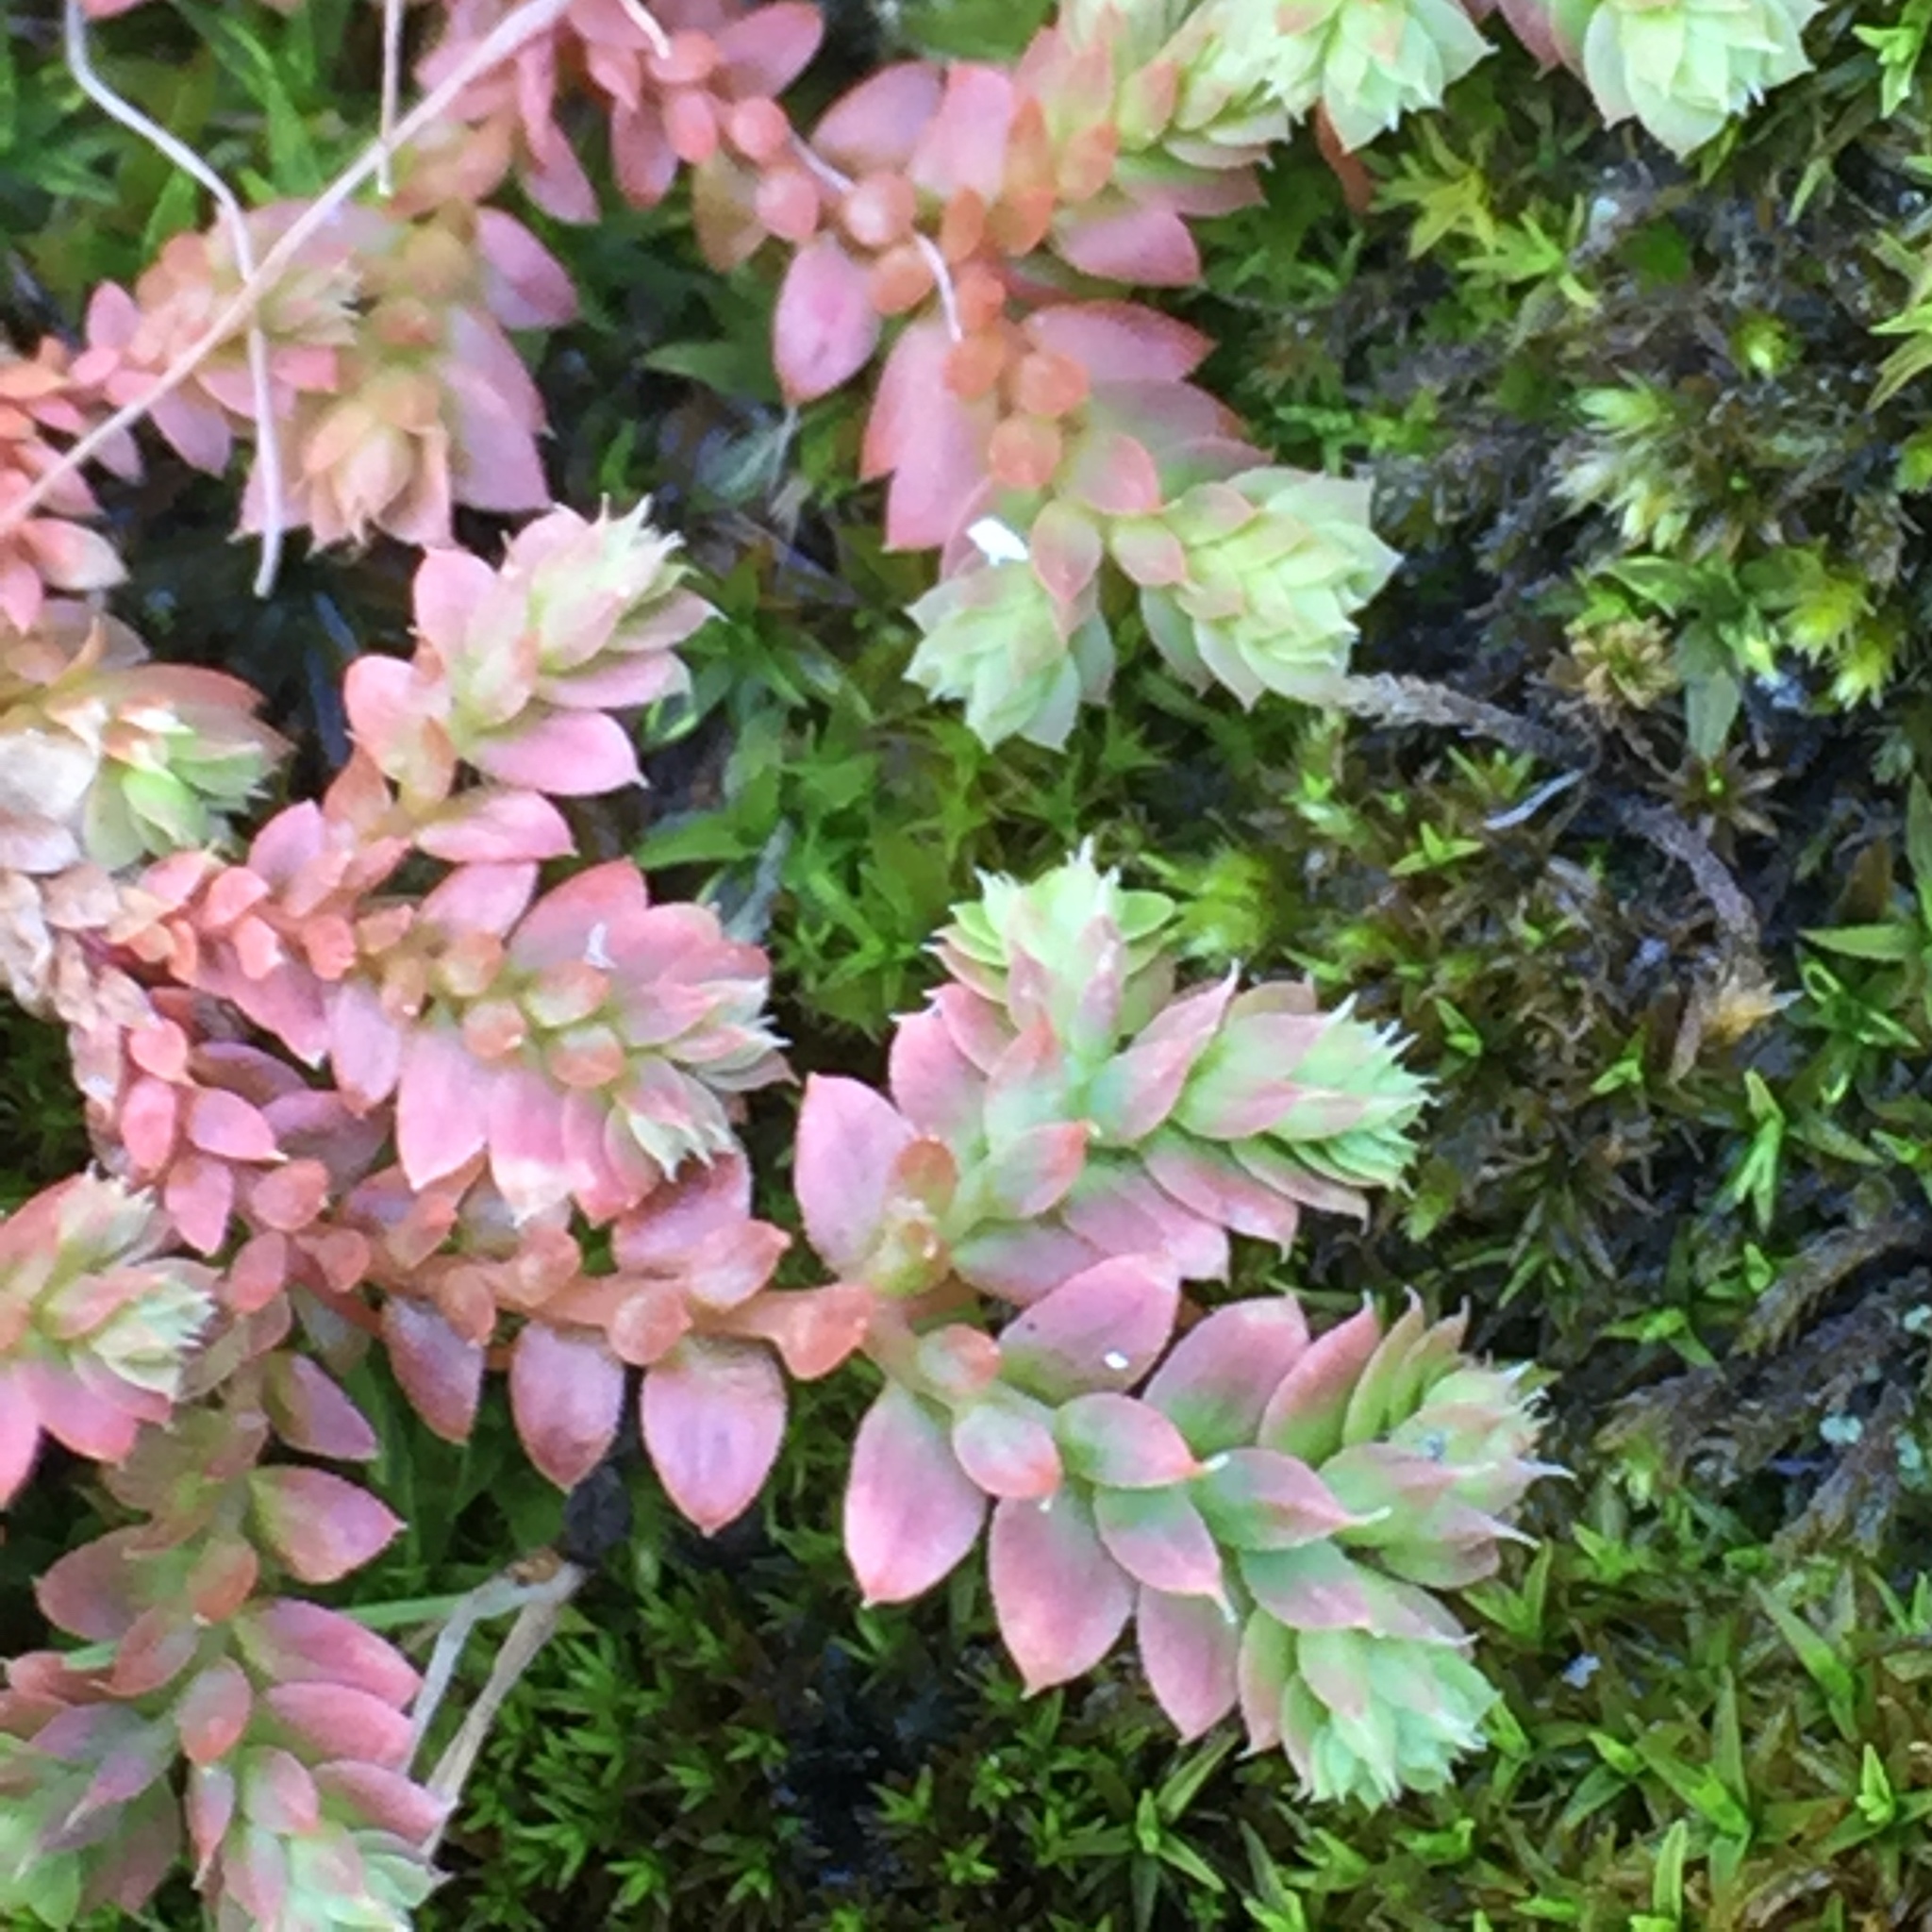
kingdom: Plantae
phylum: Tracheophyta
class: Lycopodiopsida
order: Selaginellales
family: Selaginellaceae
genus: Selaginella
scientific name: Selaginella denticulata
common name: Toothed-leaved clubmoss
